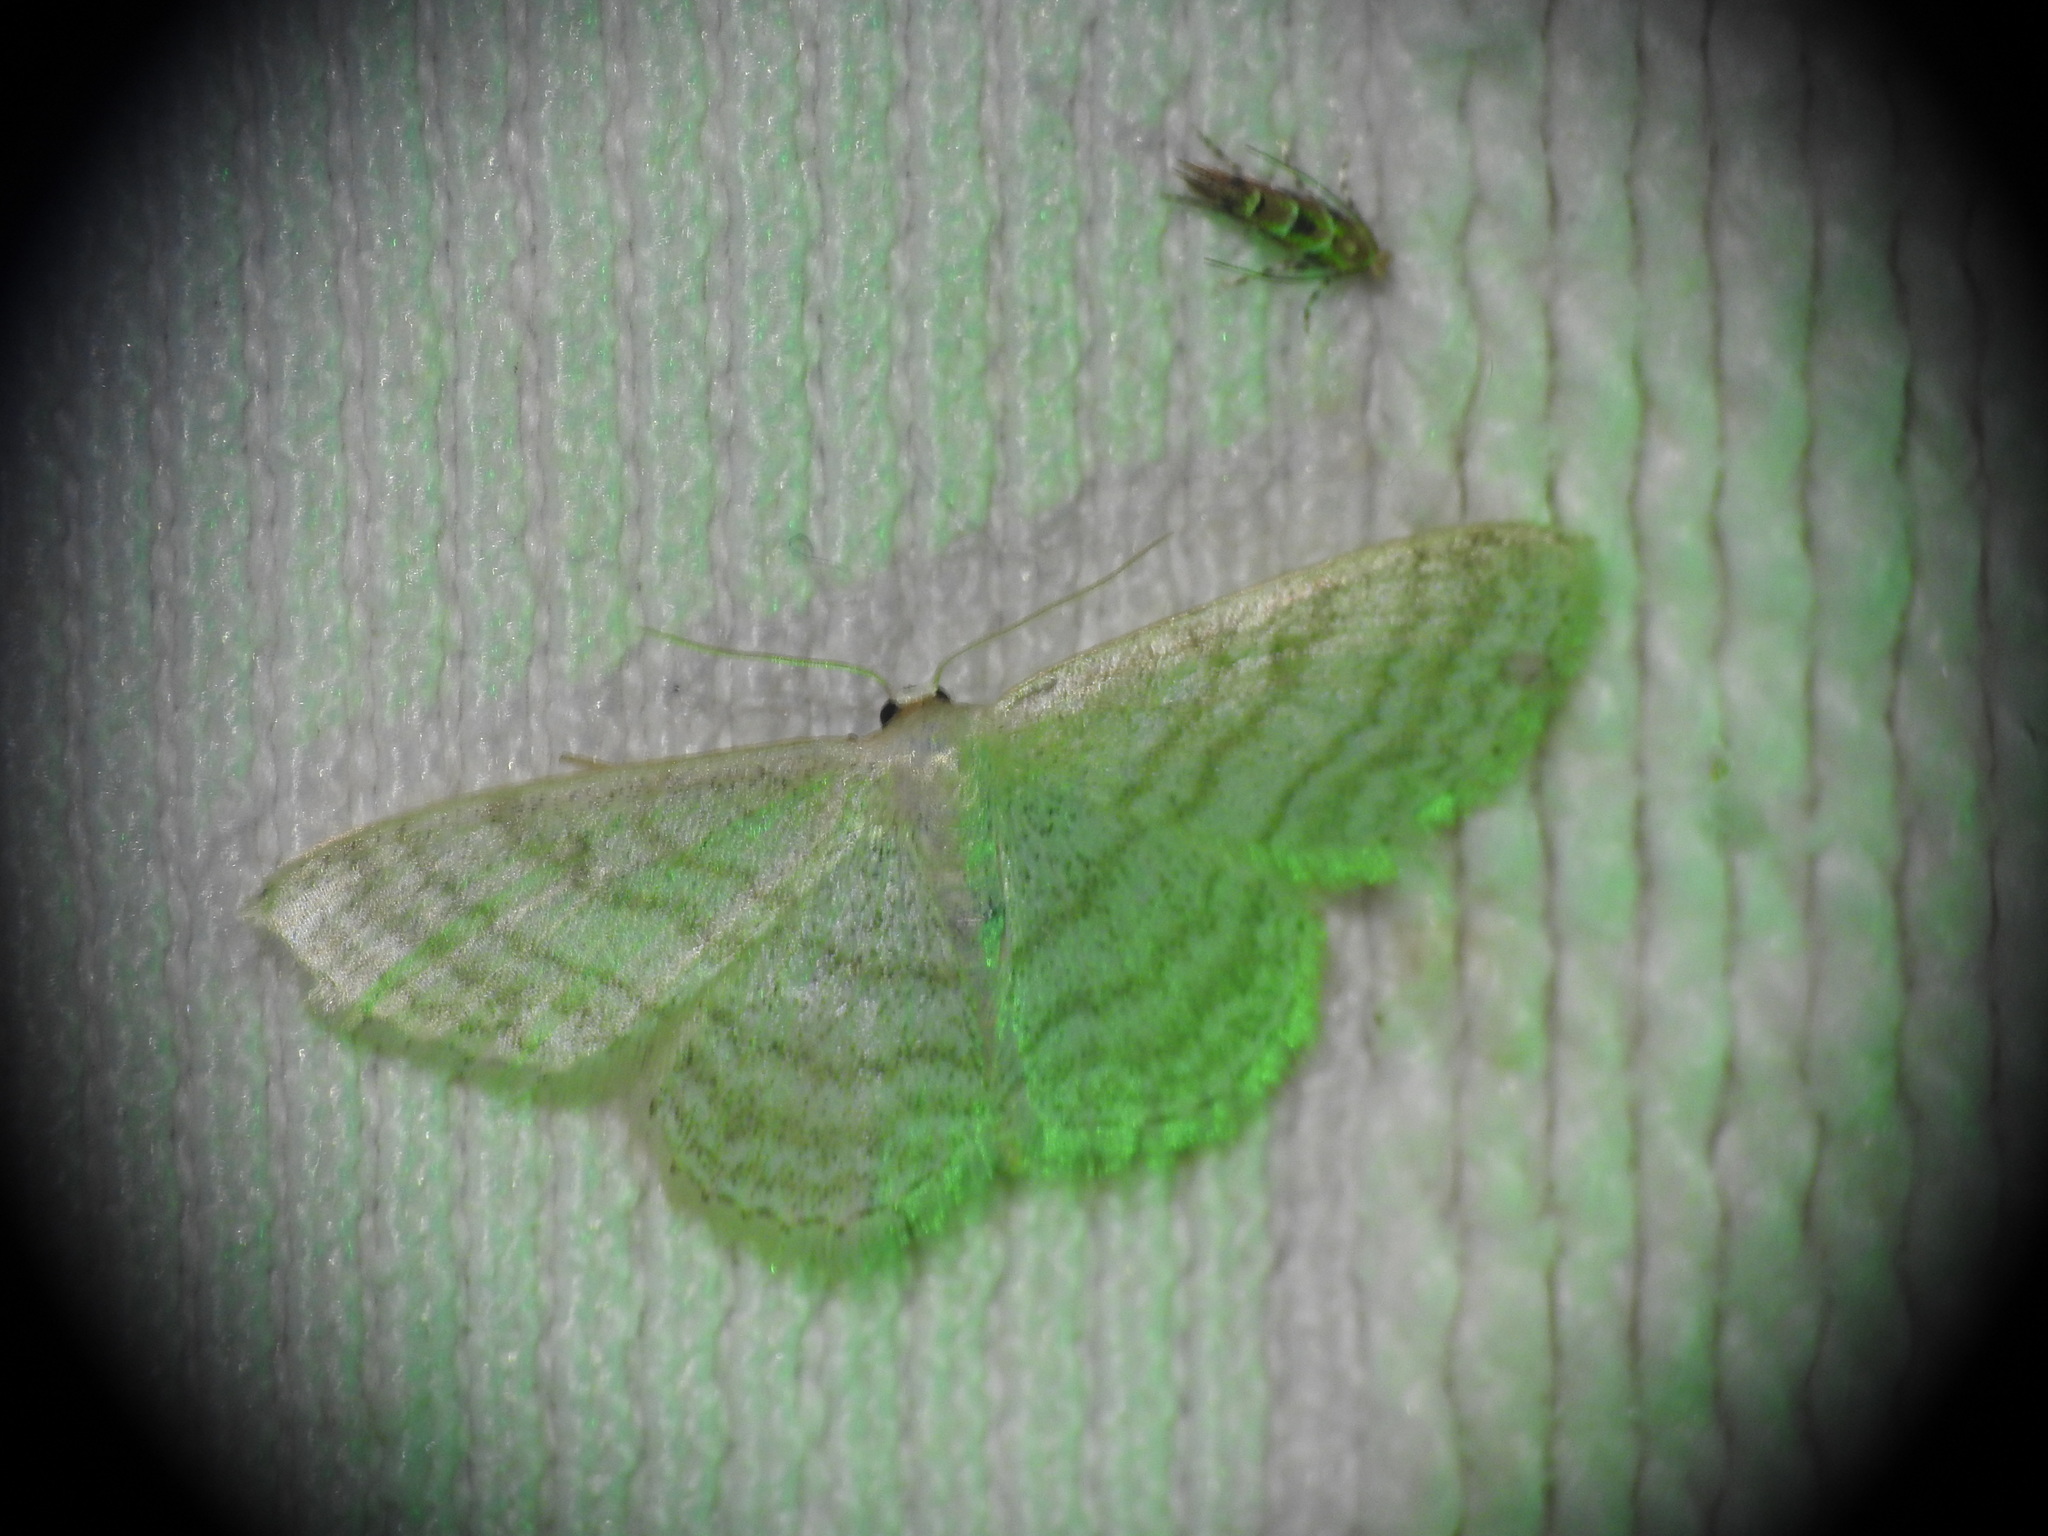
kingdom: Animalia
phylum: Arthropoda
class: Insecta
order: Lepidoptera
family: Geometridae
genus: Idaea
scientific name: Idaea subsericeata
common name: Satin wave
